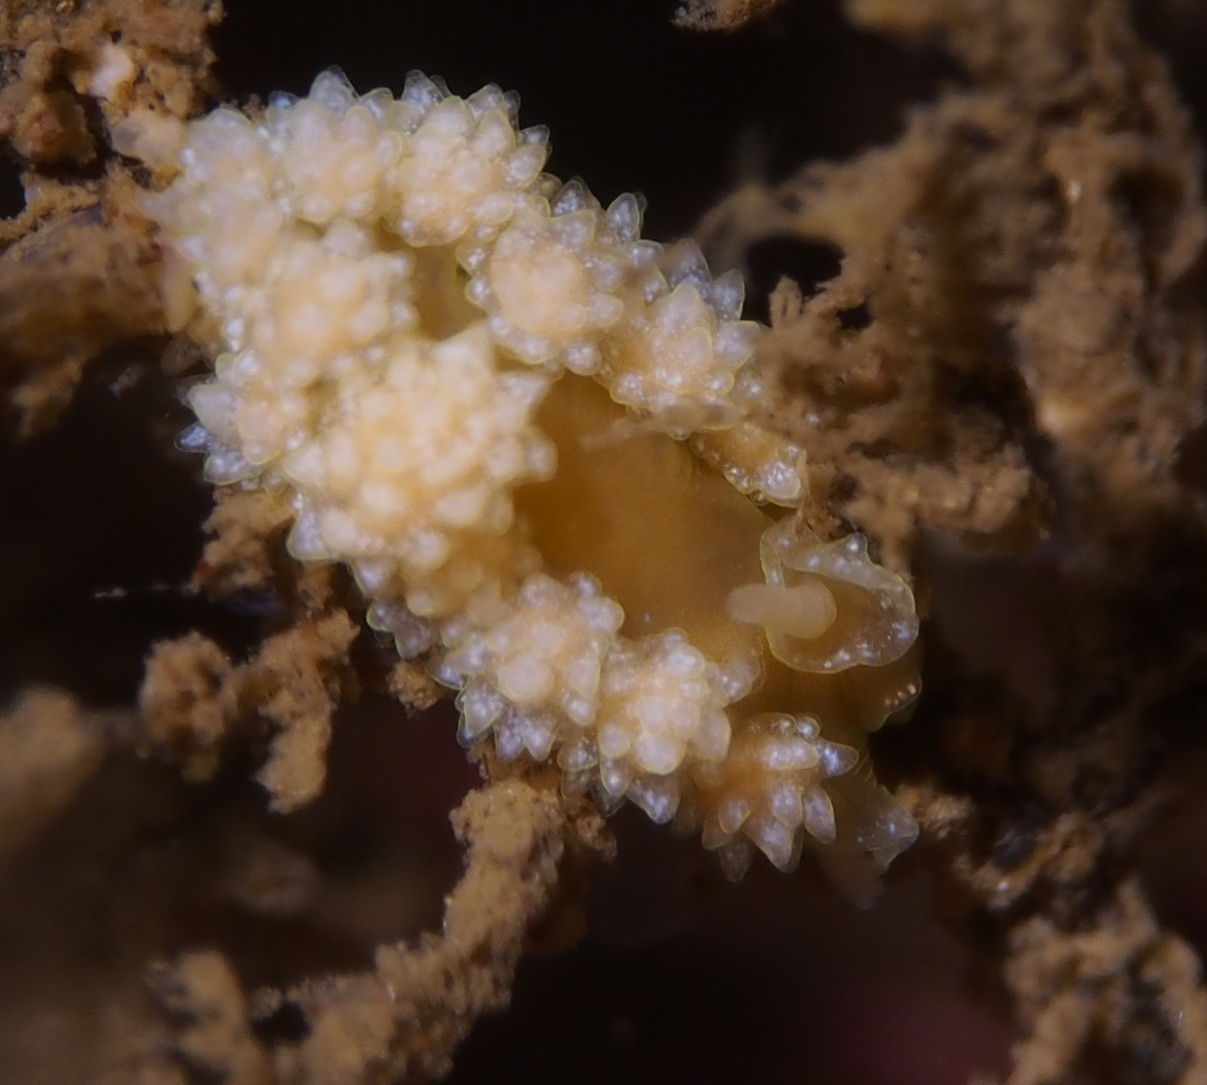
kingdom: Animalia
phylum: Mollusca
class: Gastropoda
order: Nudibranchia
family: Dotidae
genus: Doto
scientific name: Doto fragilis
